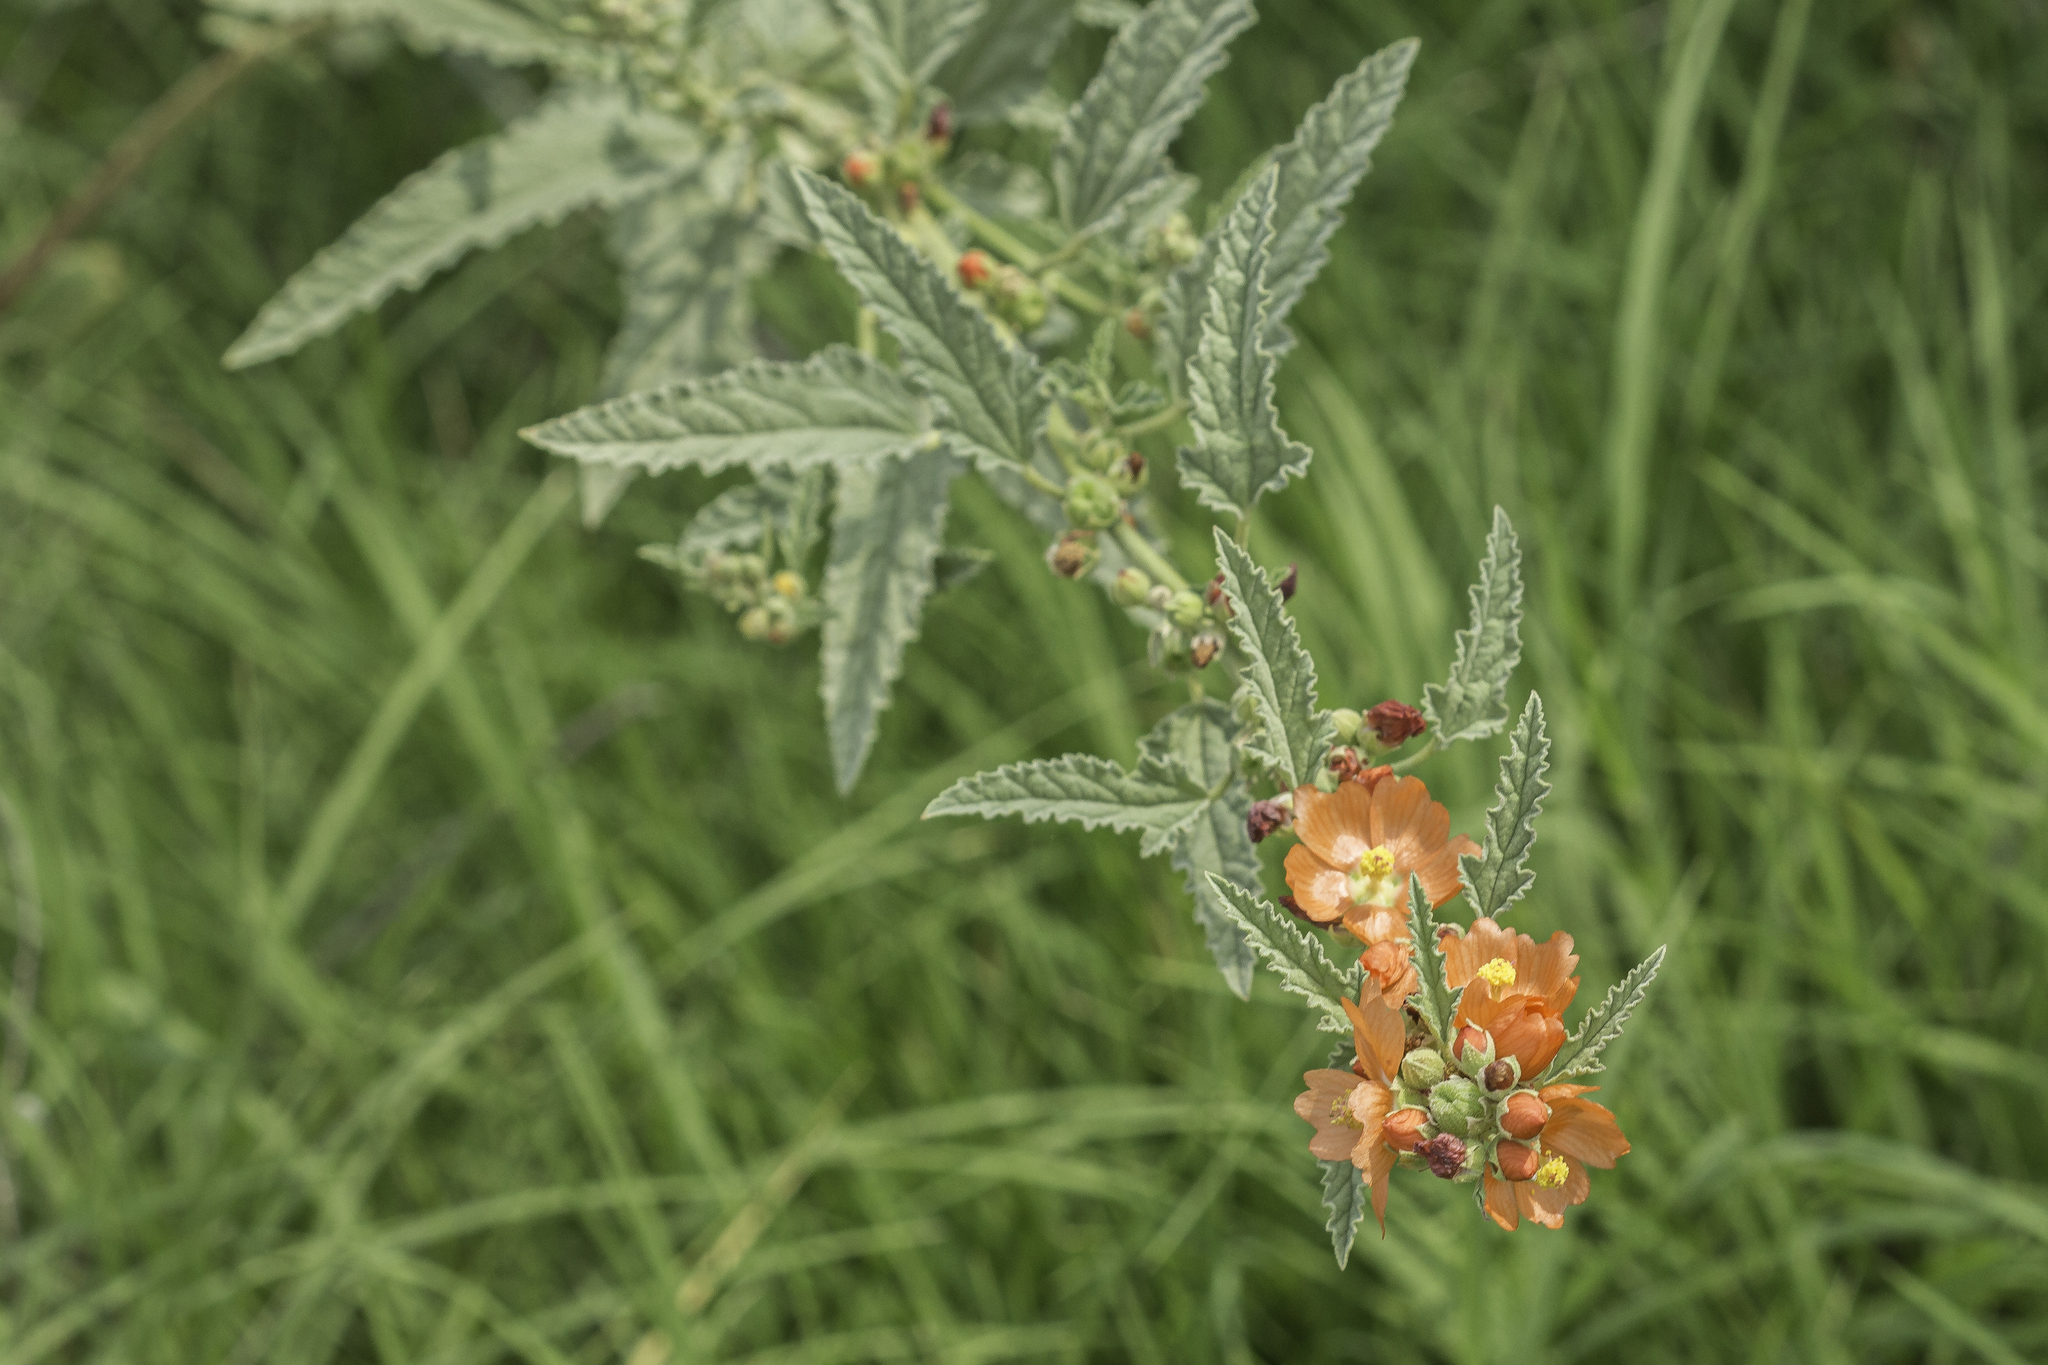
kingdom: Plantae
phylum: Tracheophyta
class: Magnoliopsida
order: Malvales
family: Malvaceae
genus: Sphaeralcea
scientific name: Sphaeralcea angustifolia
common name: Copper globe-mallow
